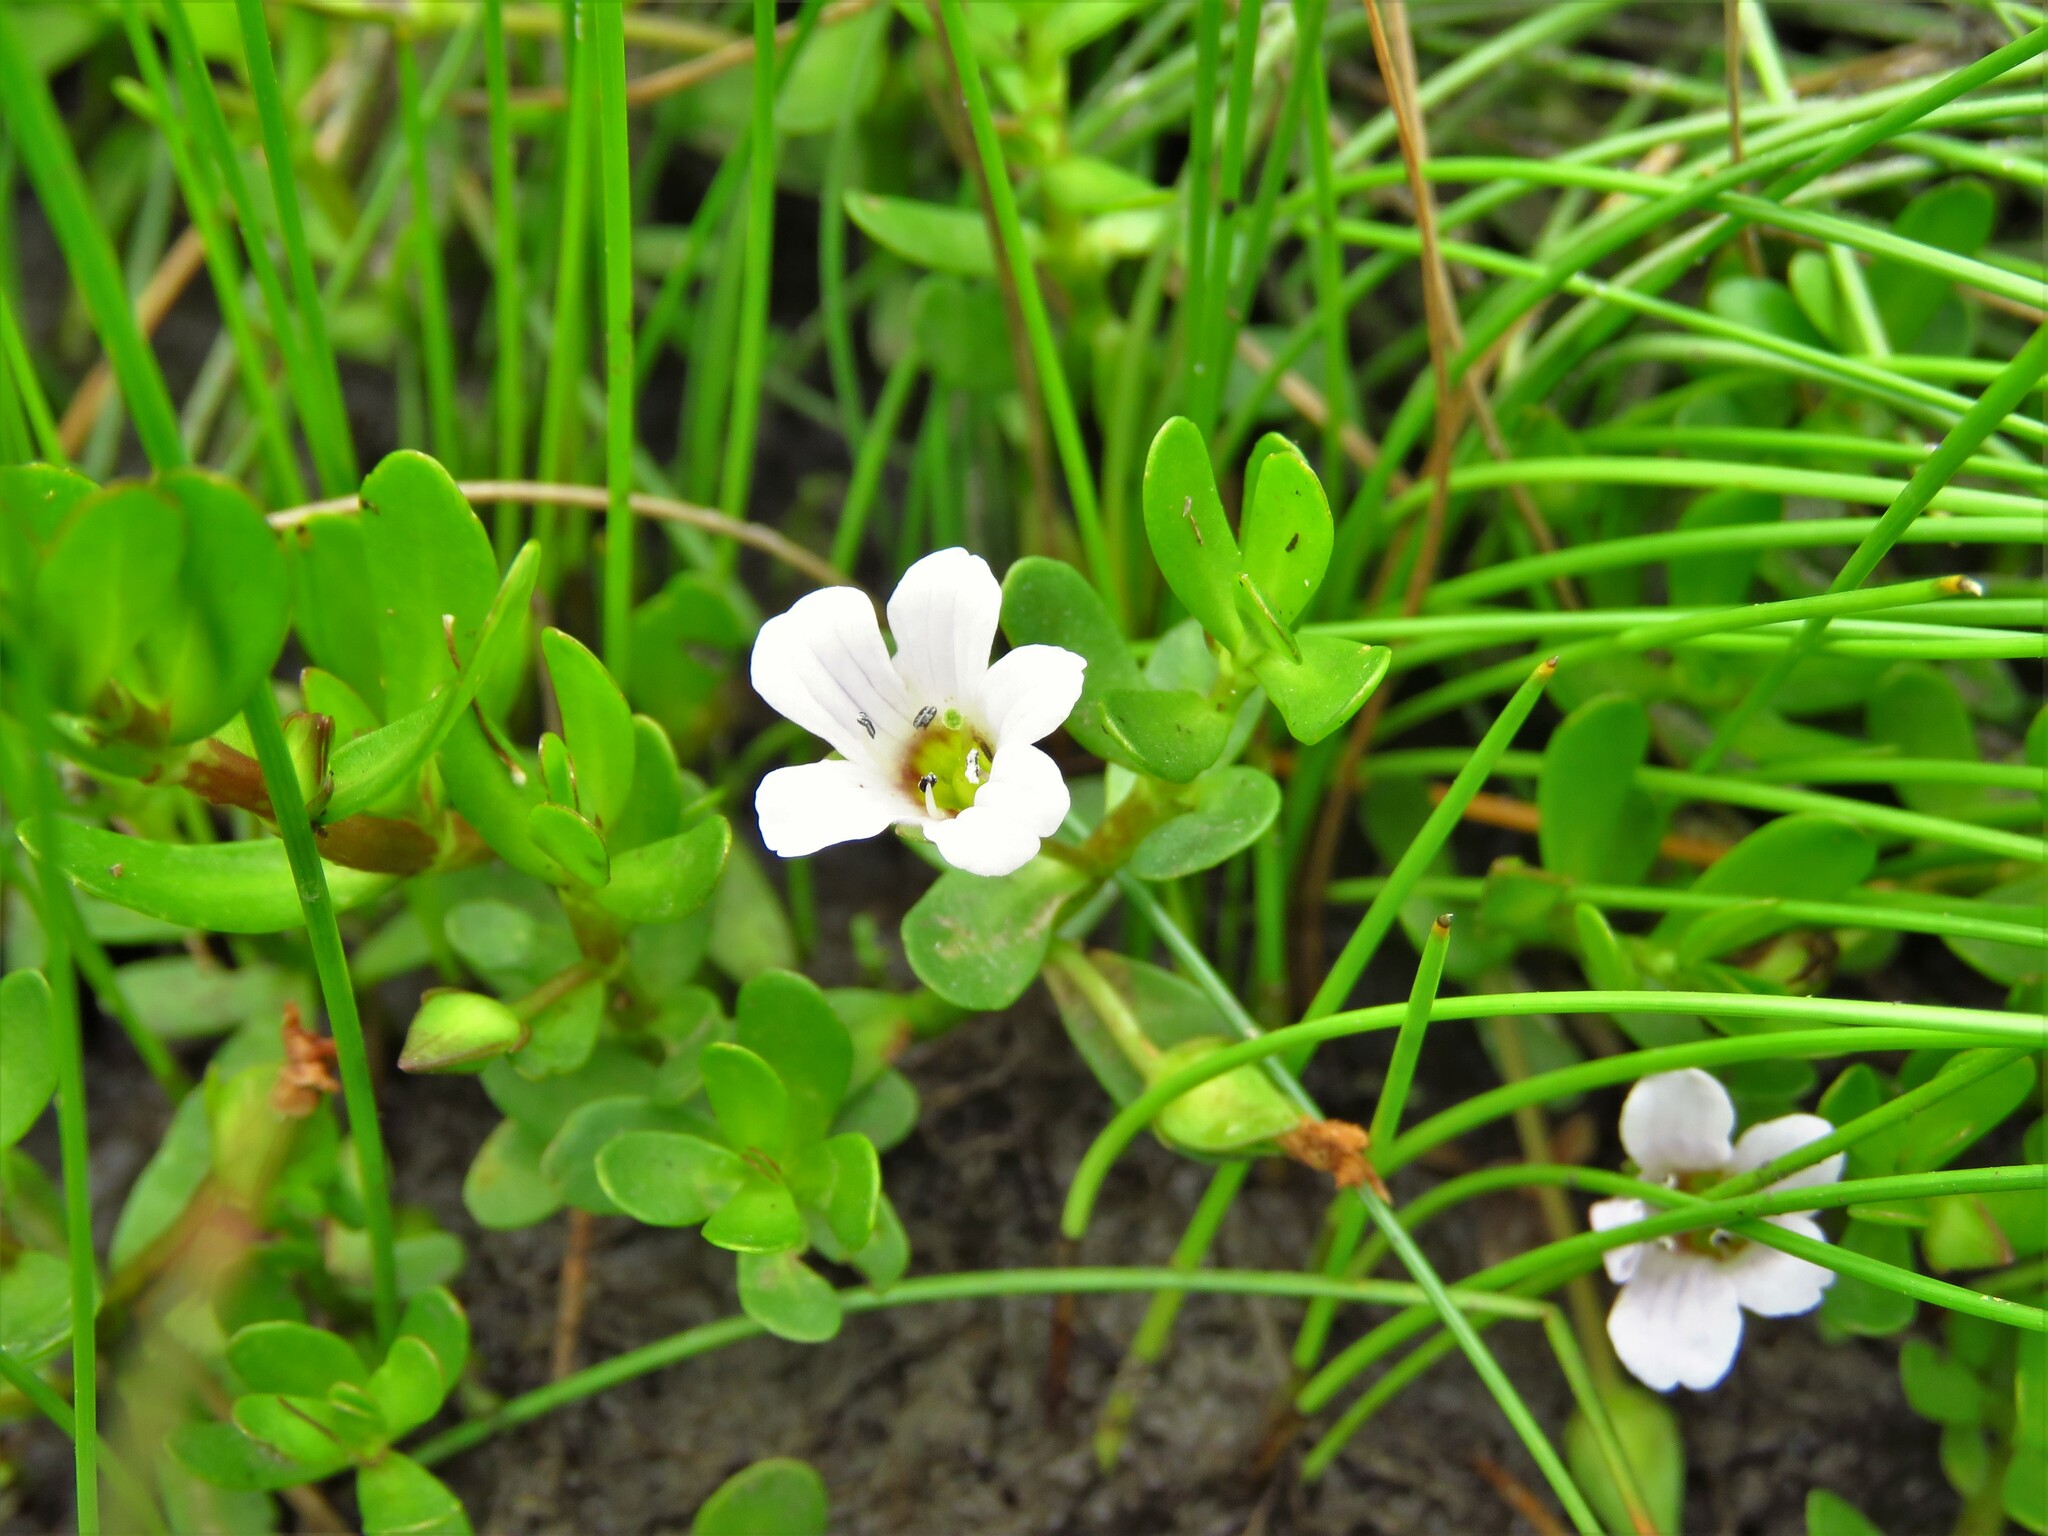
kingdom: Plantae
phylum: Tracheophyta
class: Magnoliopsida
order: Lamiales
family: Plantaginaceae
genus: Bacopa
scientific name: Bacopa monnieri
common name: Indian-pennywort
